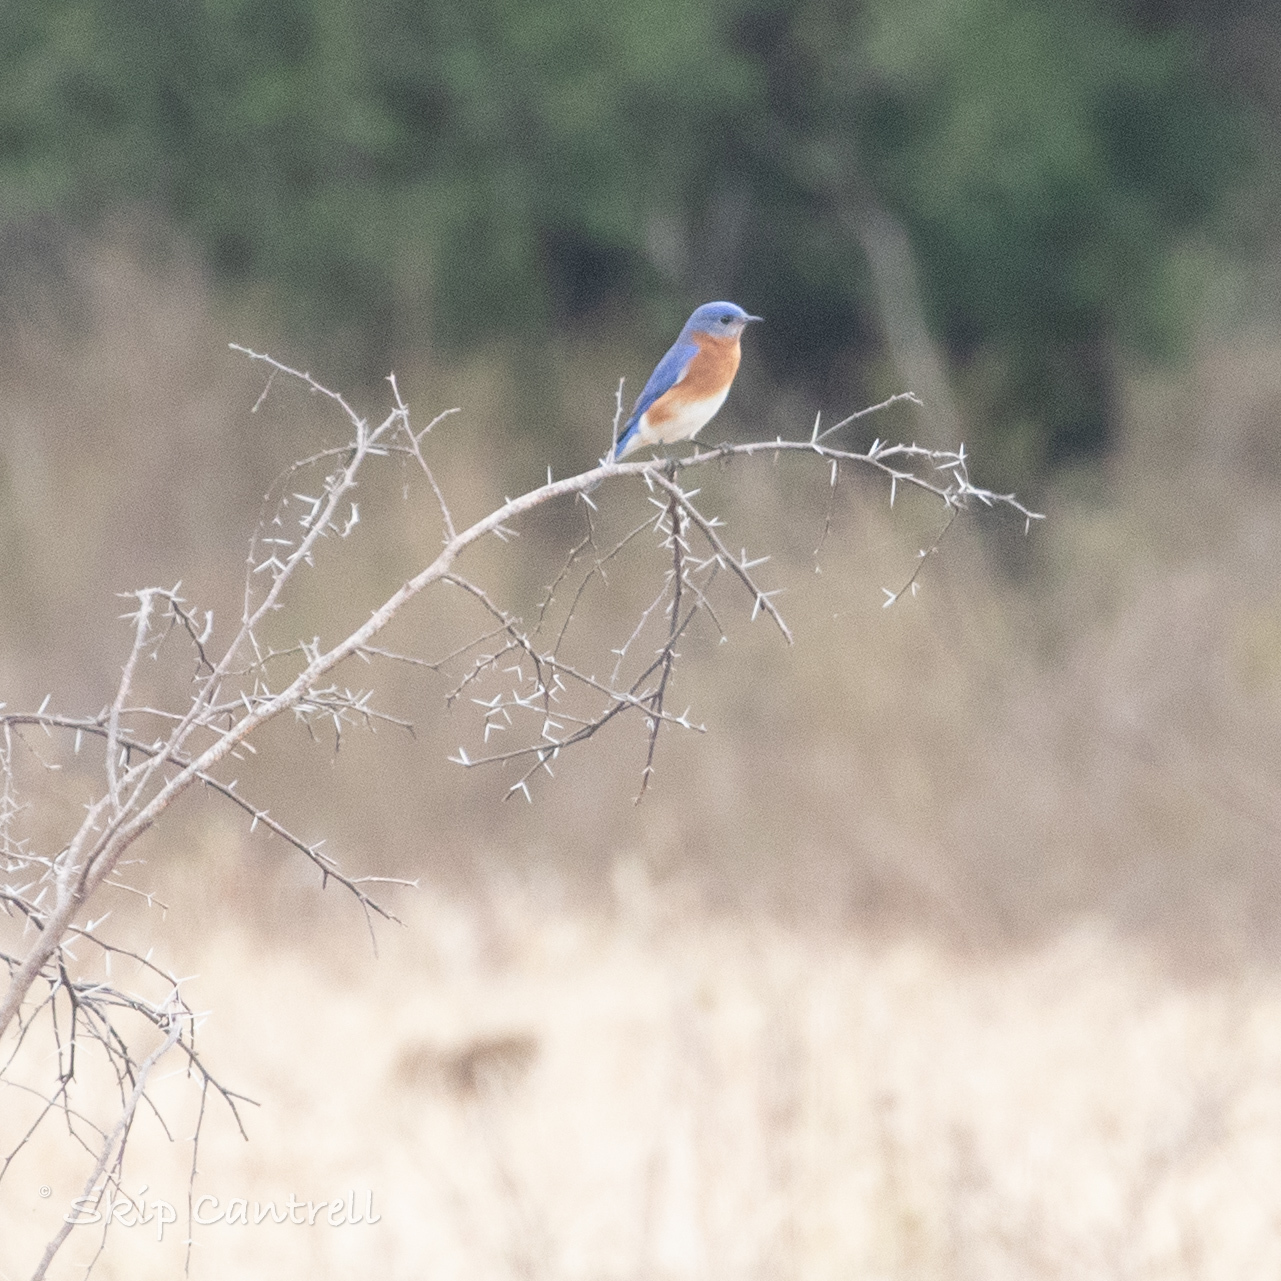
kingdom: Animalia
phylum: Chordata
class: Aves
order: Passeriformes
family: Turdidae
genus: Sialia
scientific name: Sialia sialis
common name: Eastern bluebird
